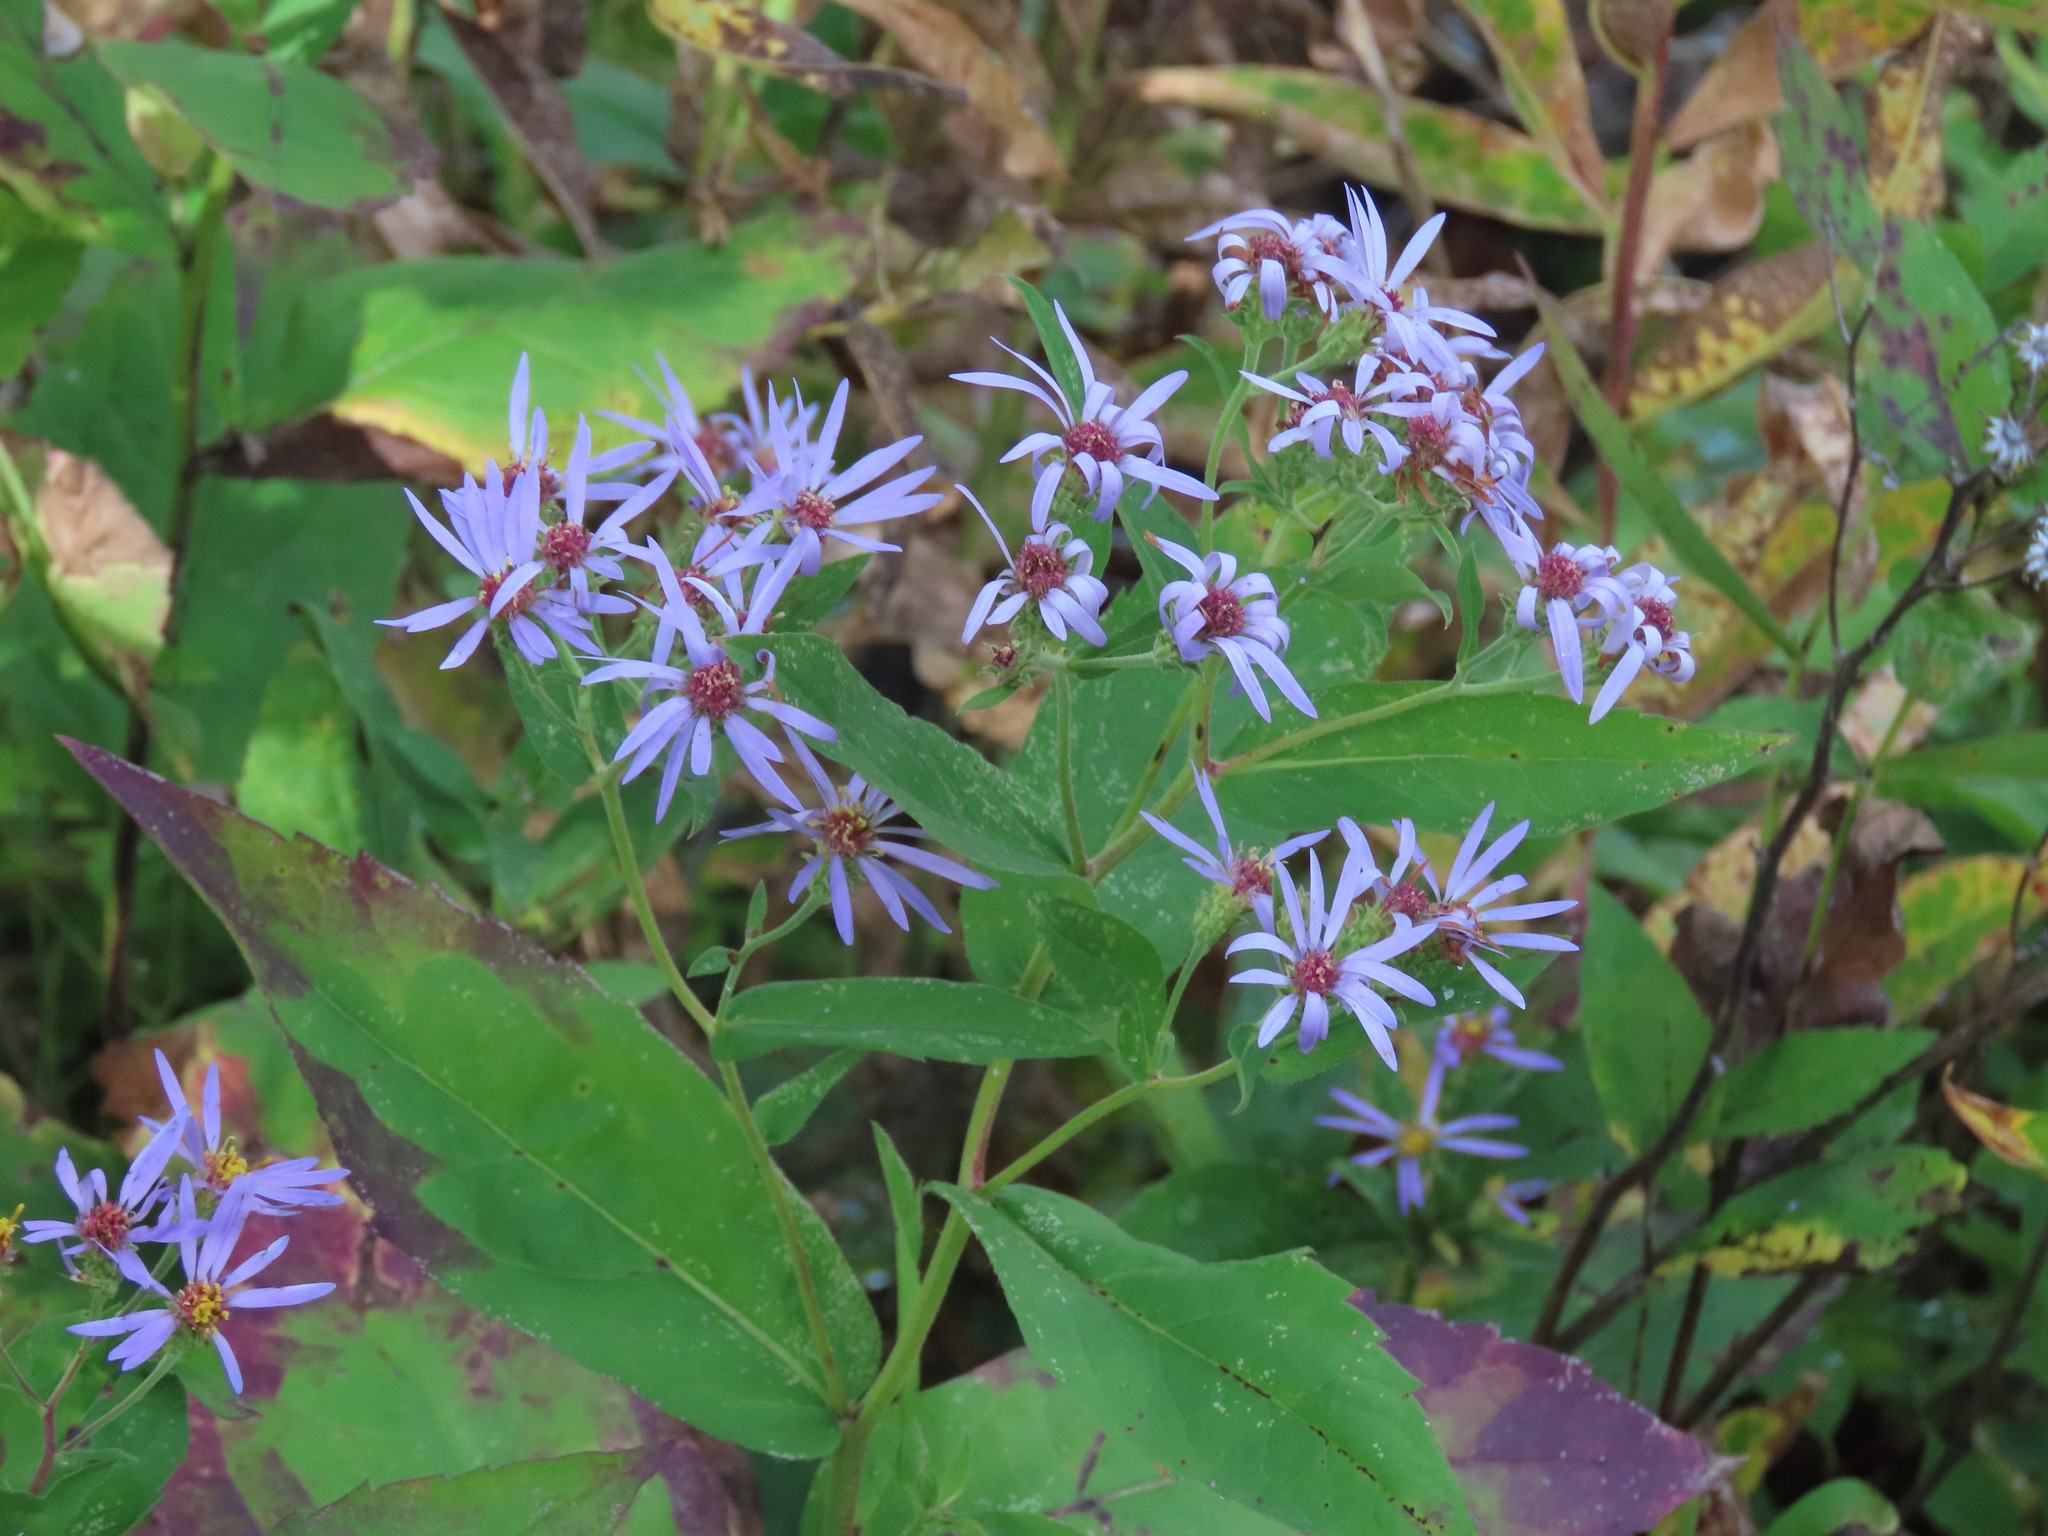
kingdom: Plantae
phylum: Tracheophyta
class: Magnoliopsida
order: Asterales
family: Asteraceae
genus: Eurybia
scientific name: Eurybia conspicua
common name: Showy aster
